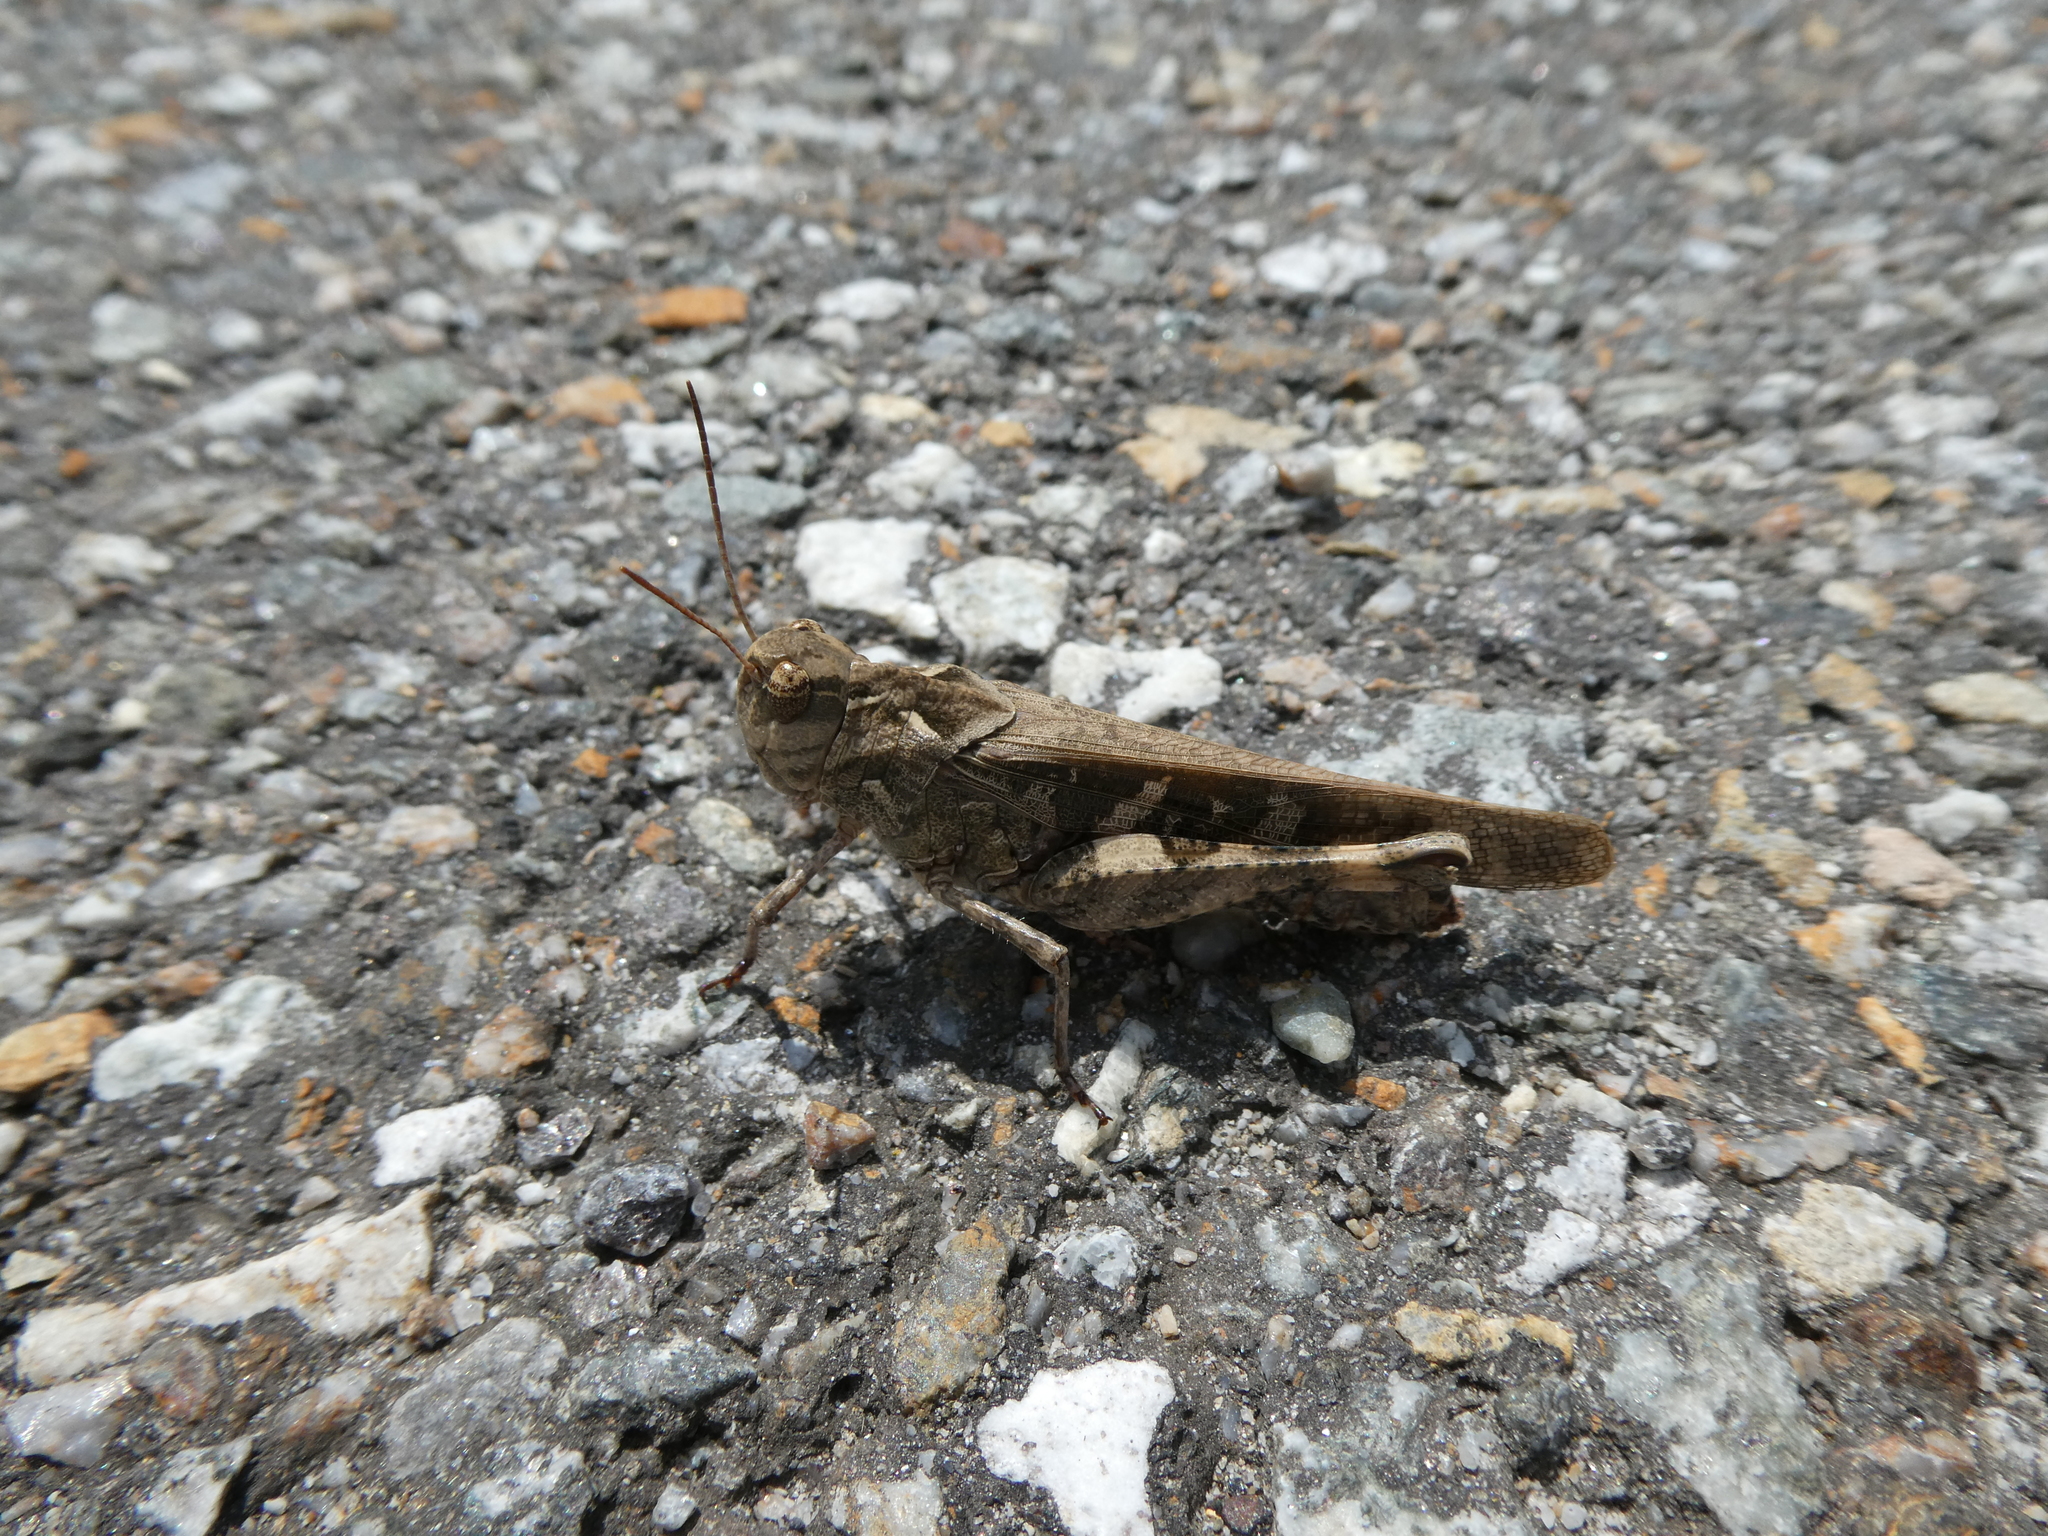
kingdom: Animalia
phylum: Arthropoda
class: Insecta
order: Orthoptera
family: Acrididae
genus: Oedaleus
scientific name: Oedaleus infernalis
